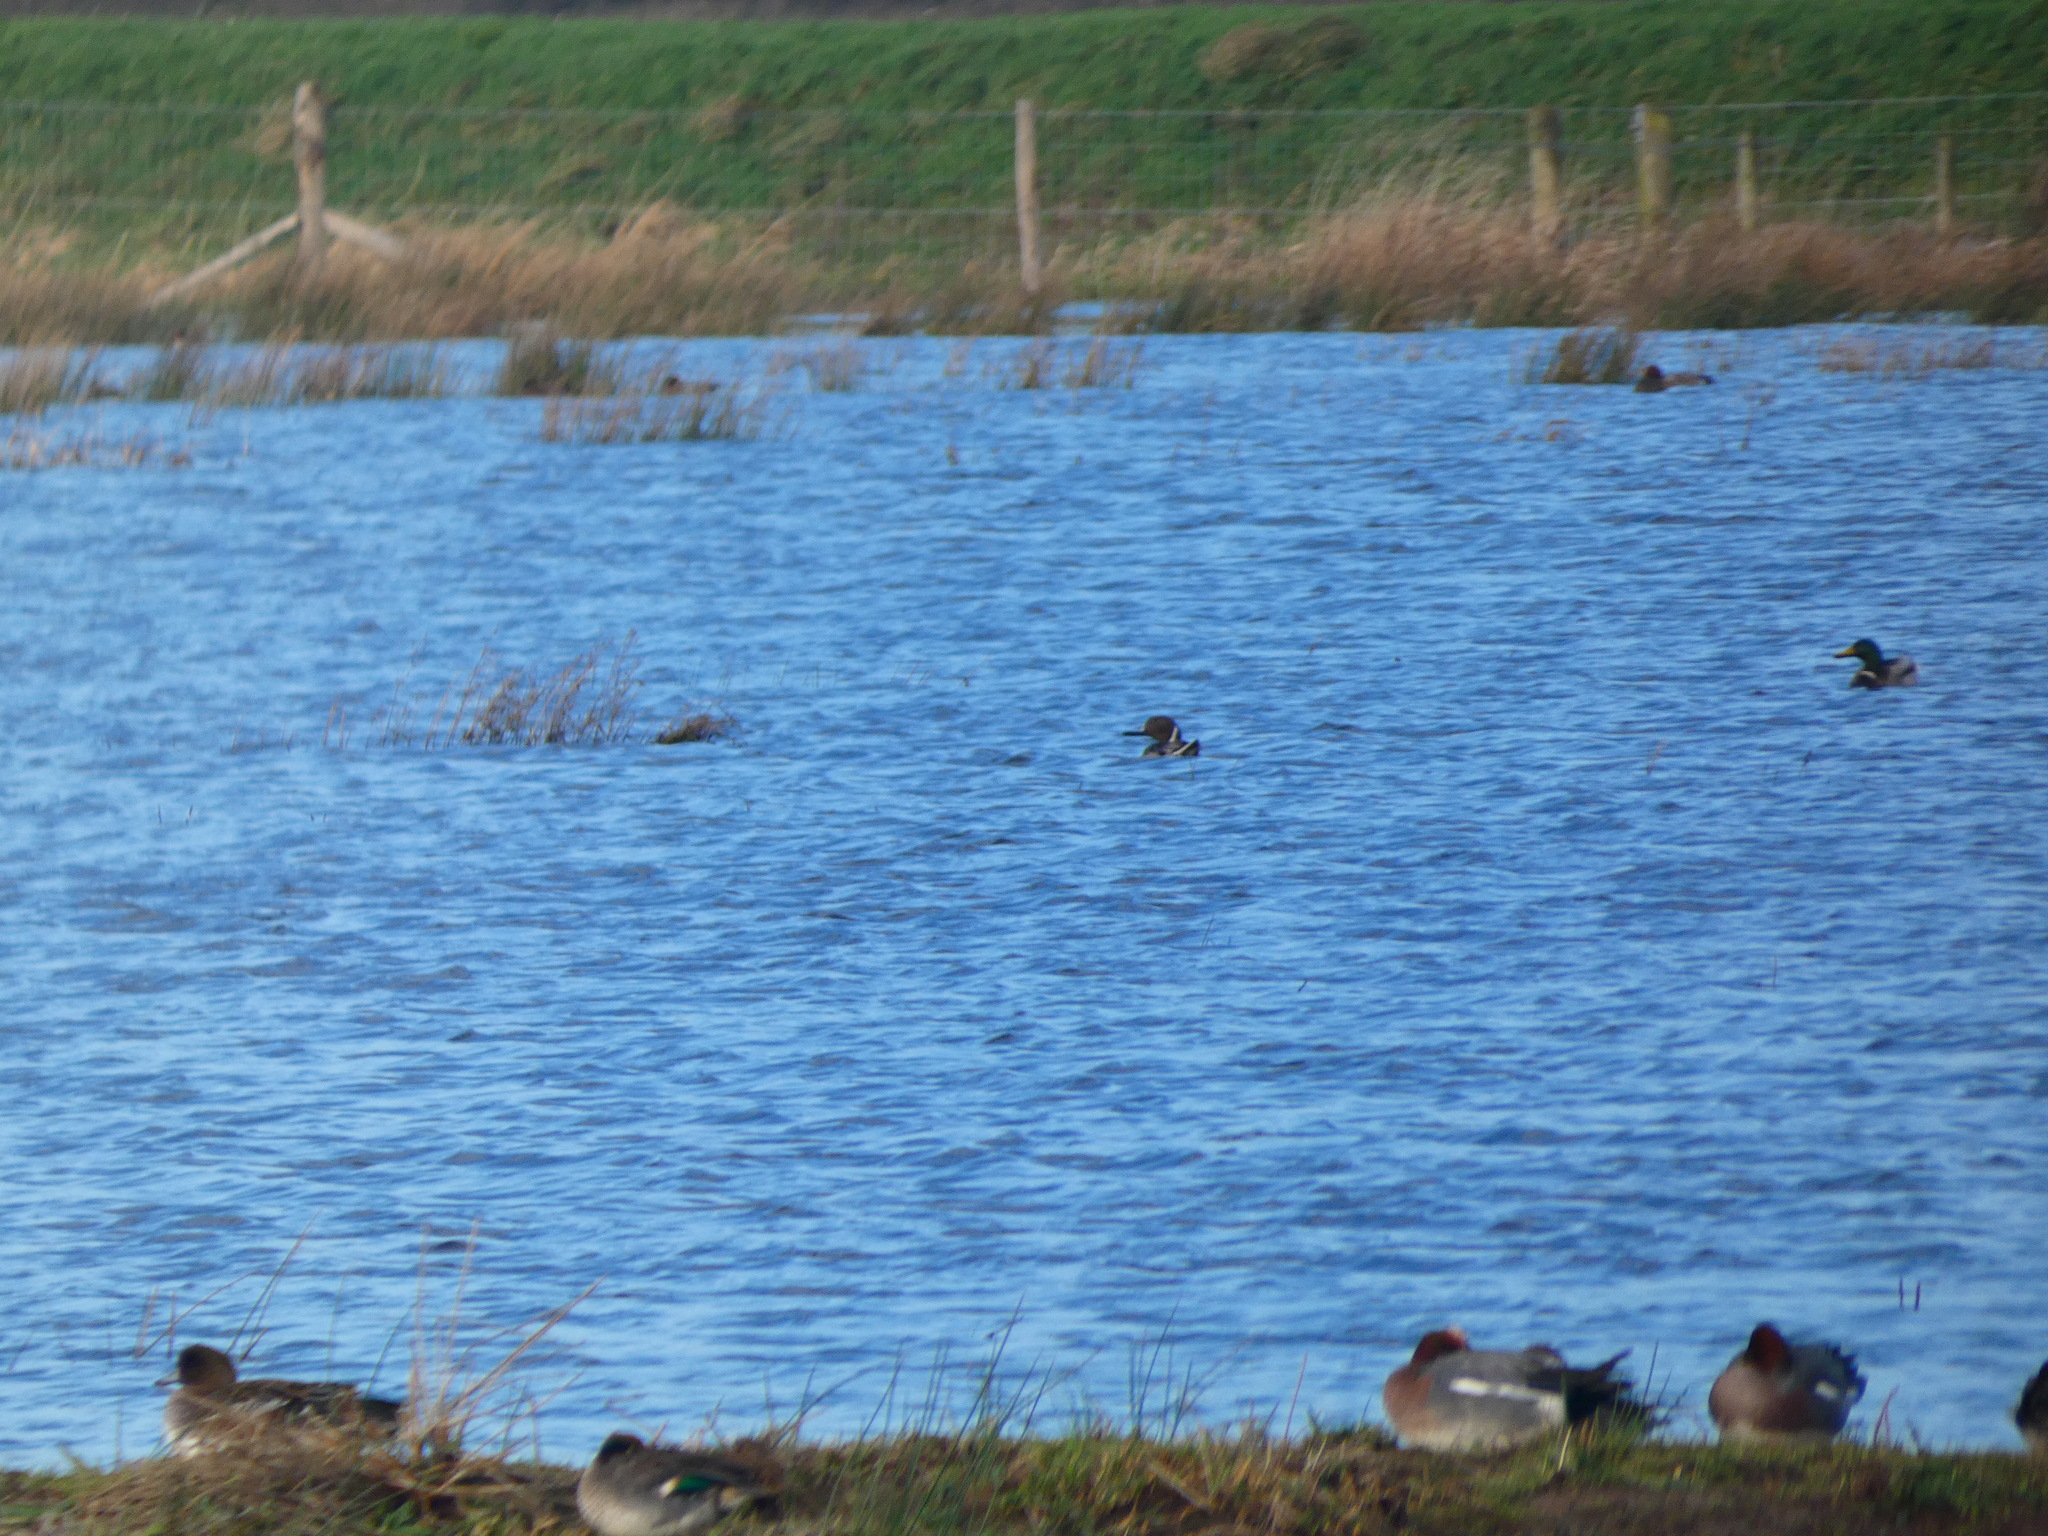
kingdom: Animalia
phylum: Chordata
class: Aves
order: Anseriformes
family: Anatidae
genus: Anas
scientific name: Anas acuta
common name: Northern pintail
